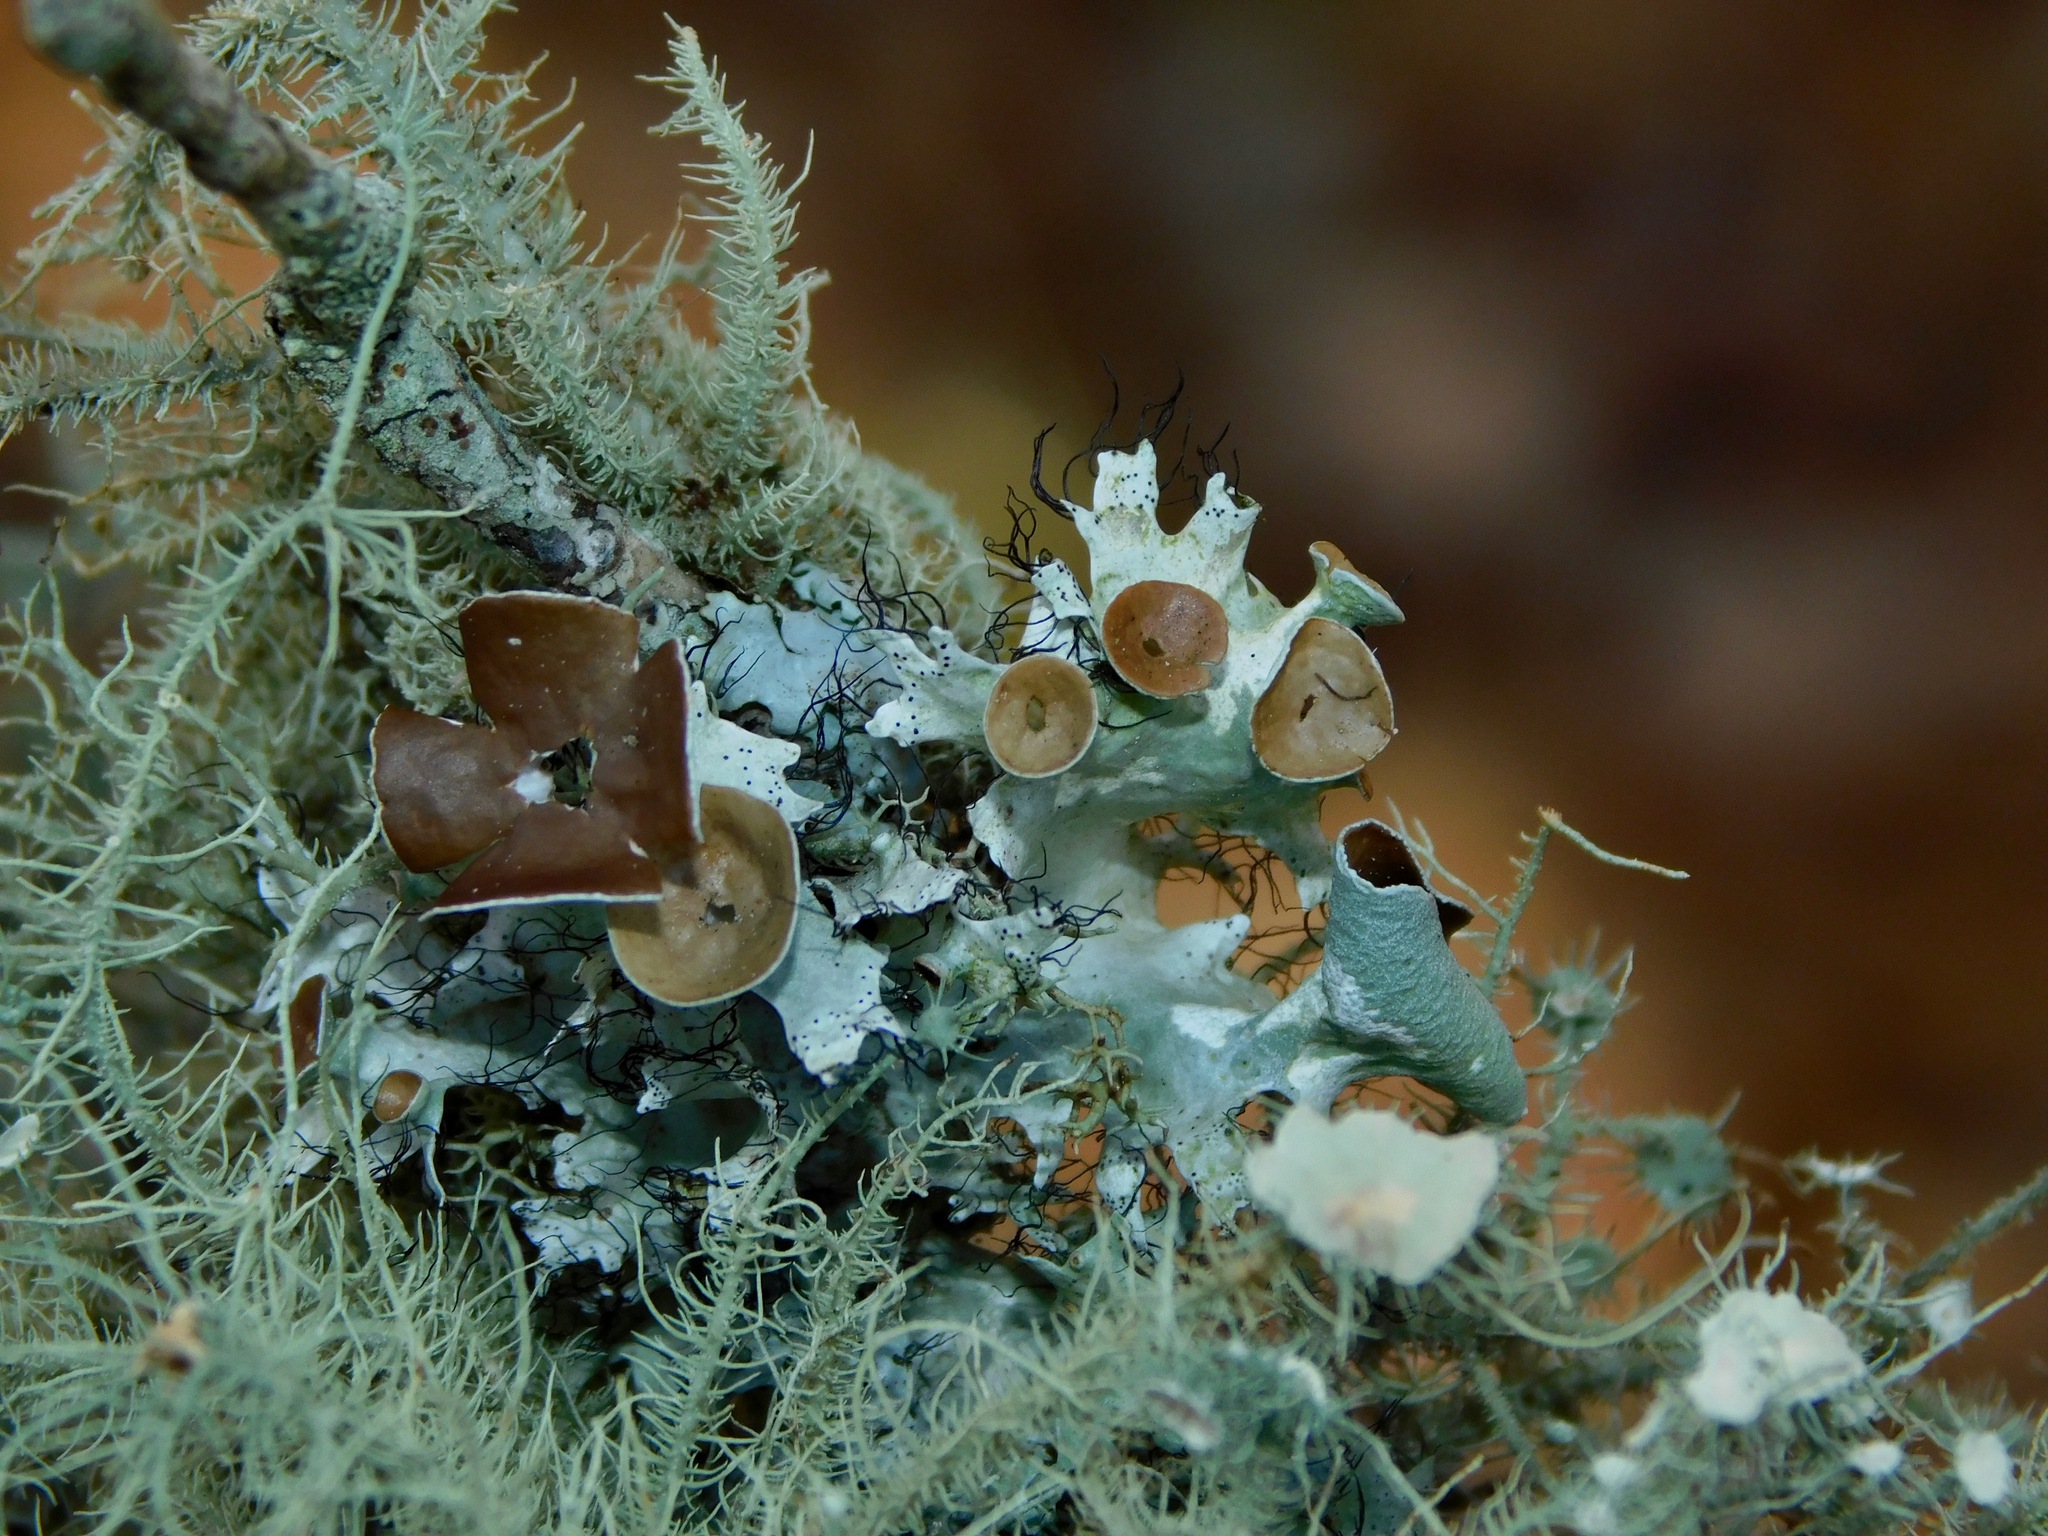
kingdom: Fungi
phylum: Ascomycota
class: Lecanoromycetes
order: Lecanorales
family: Parmeliaceae
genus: Parmotrema
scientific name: Parmotrema subrigidum
